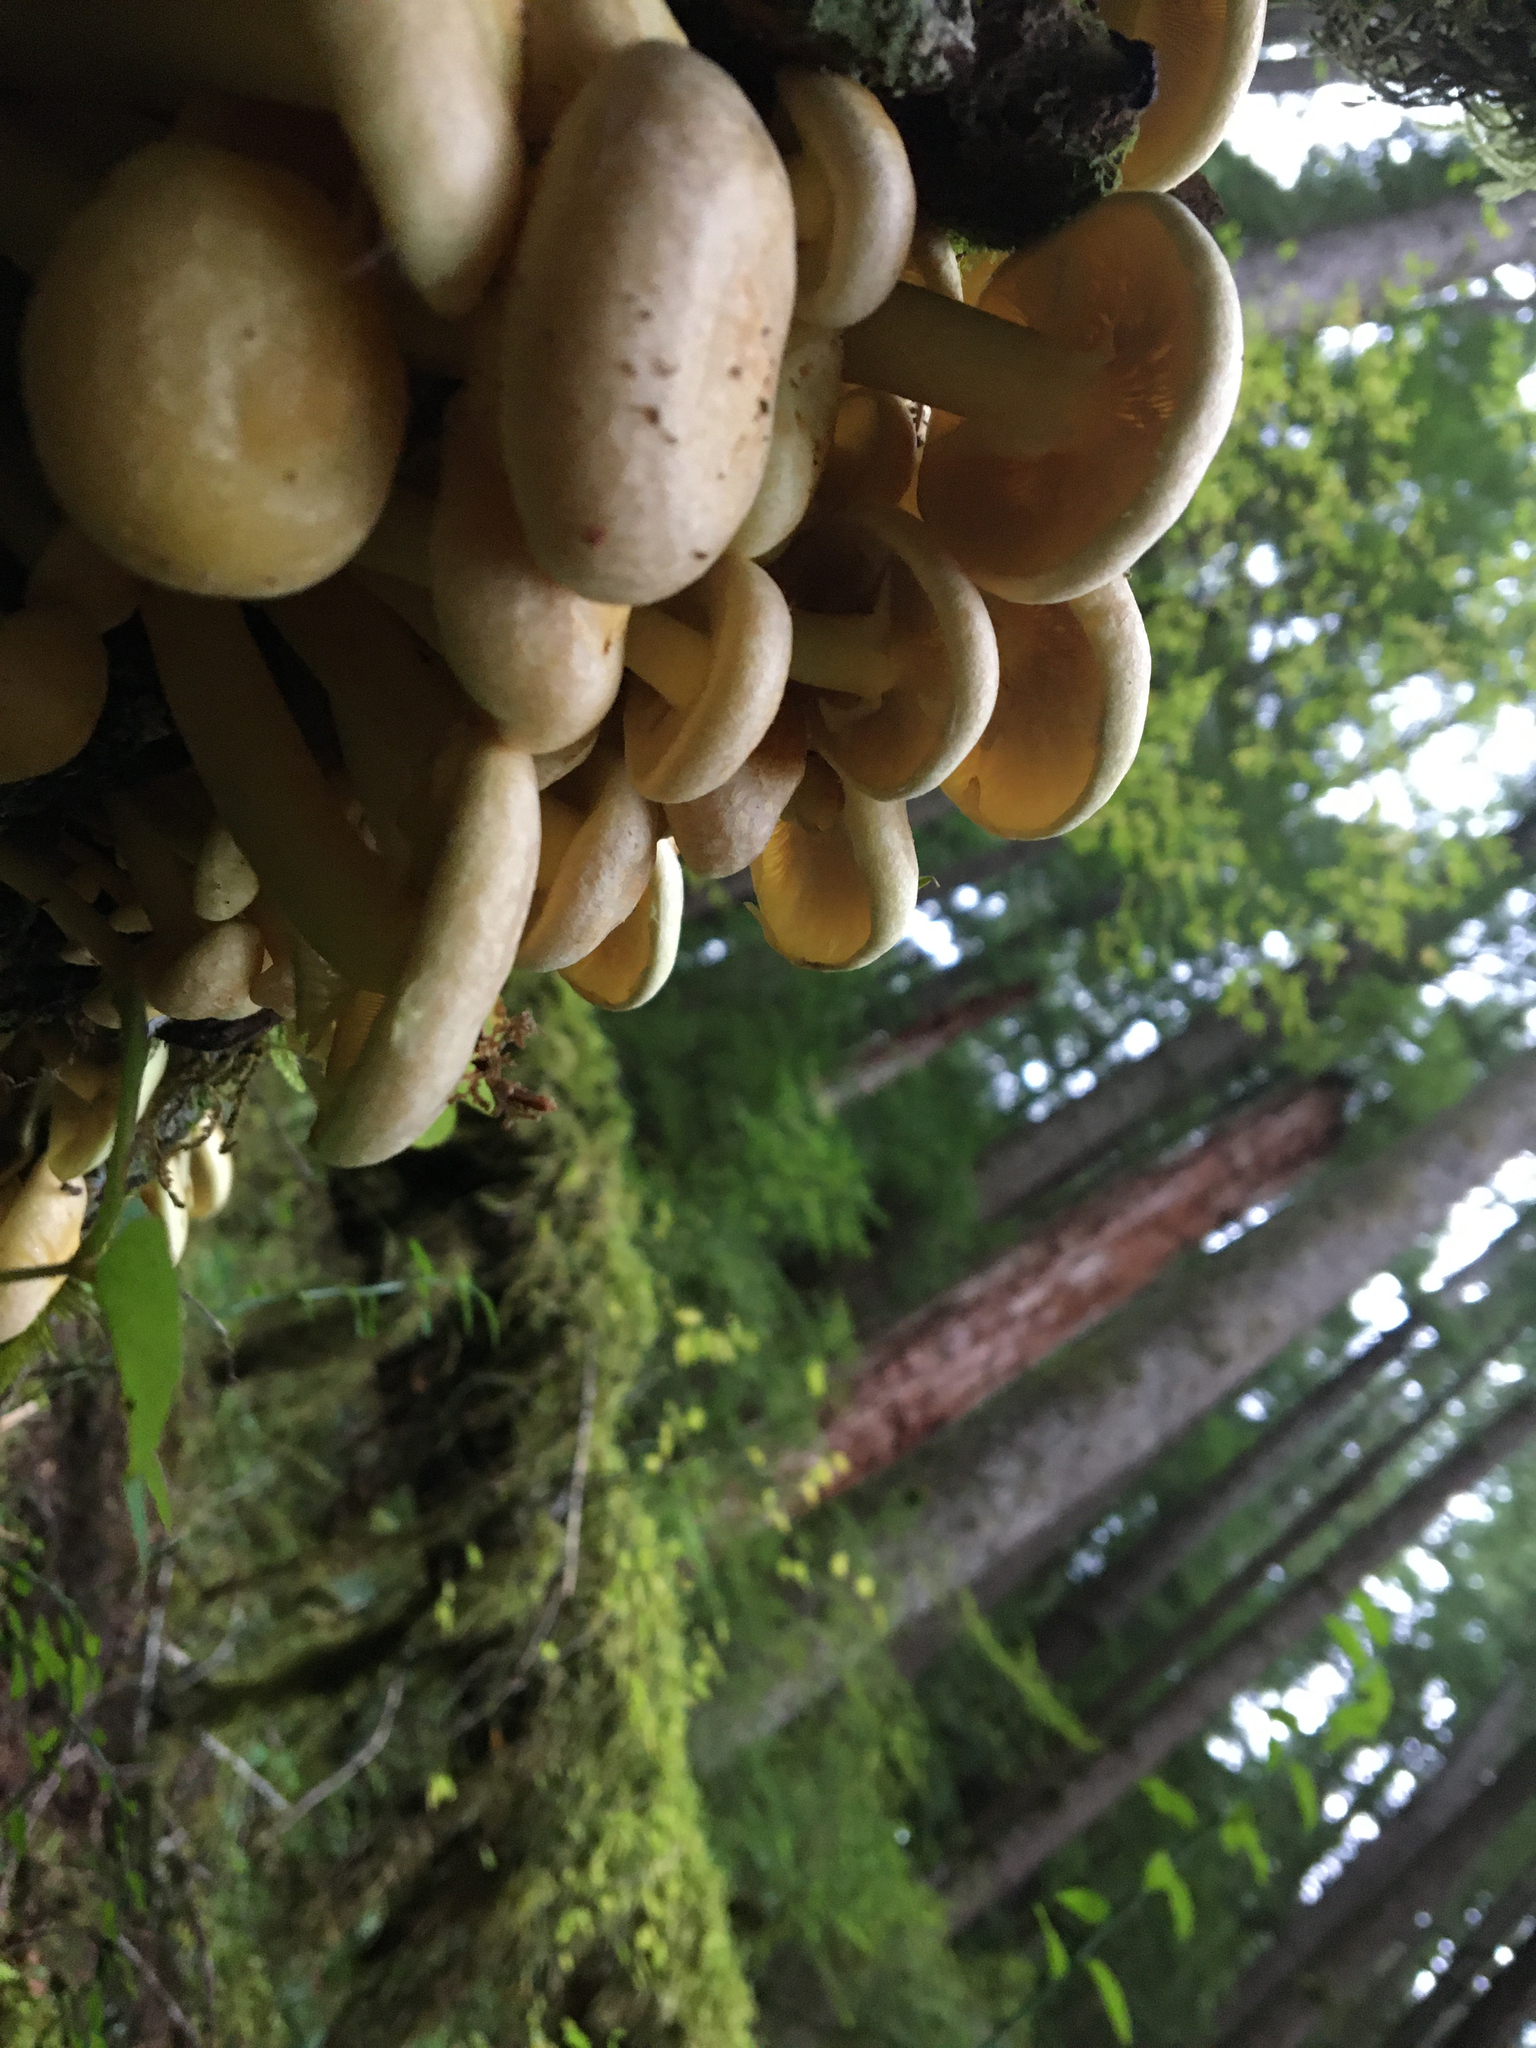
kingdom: Fungi
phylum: Basidiomycota
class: Agaricomycetes
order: Agaricales
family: Strophariaceae
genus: Hypholoma
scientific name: Hypholoma fasciculare
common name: Sulphur tuft
